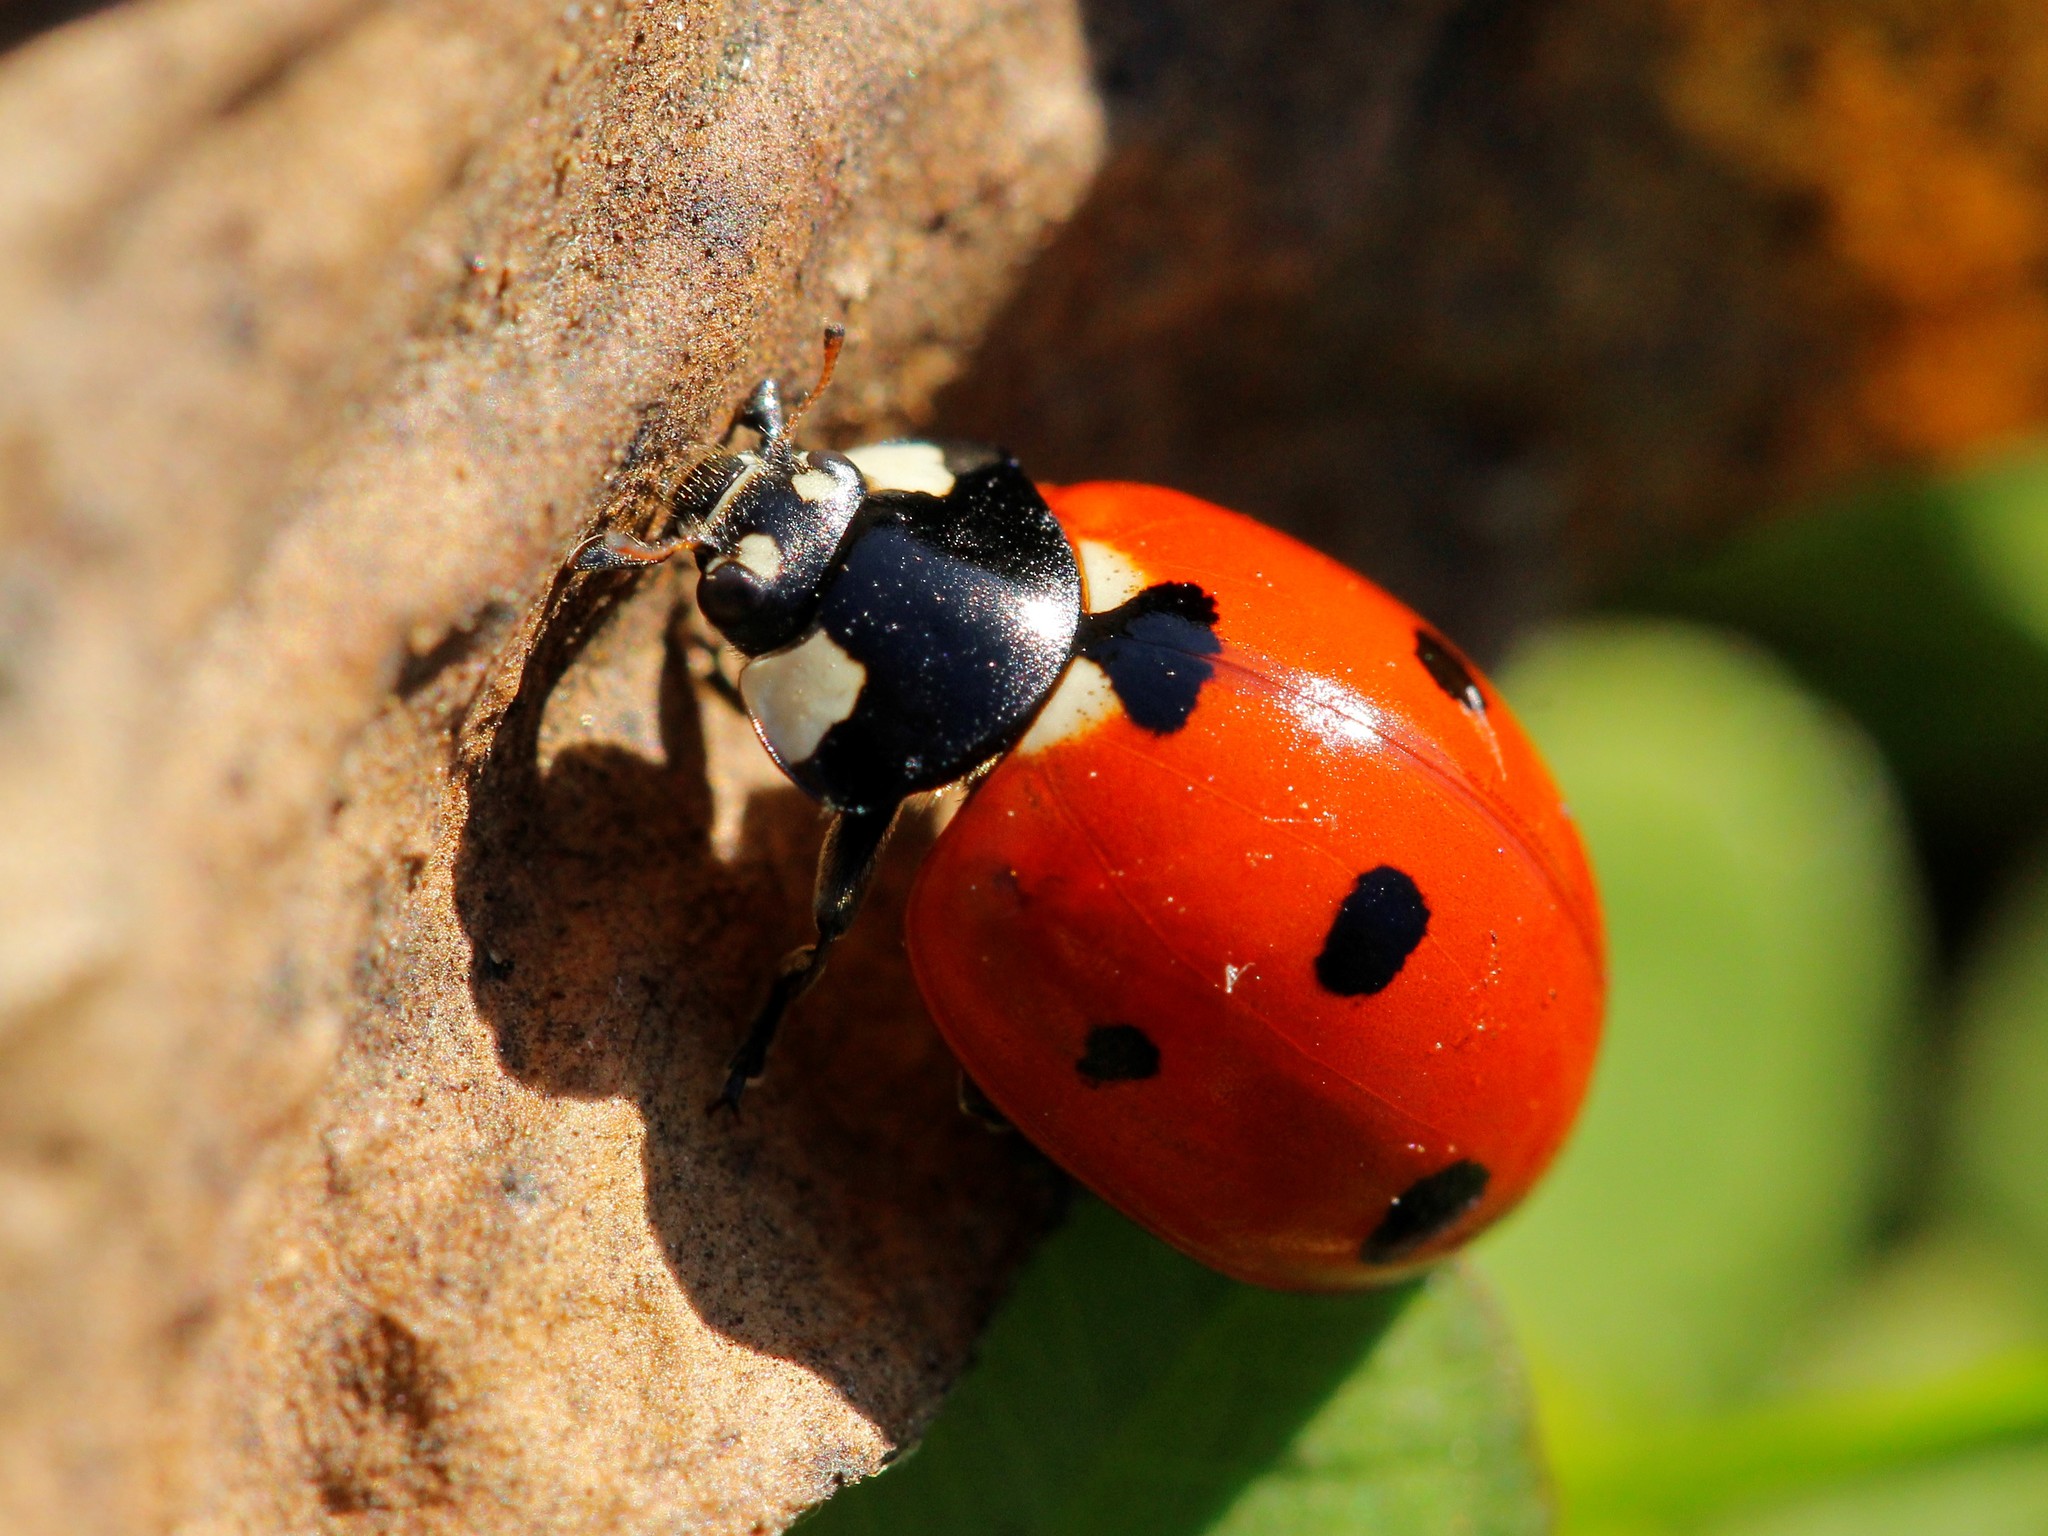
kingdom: Animalia
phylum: Arthropoda
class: Insecta
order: Coleoptera
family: Coccinellidae
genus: Coccinella
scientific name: Coccinella septempunctata
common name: Sevenspotted lady beetle
